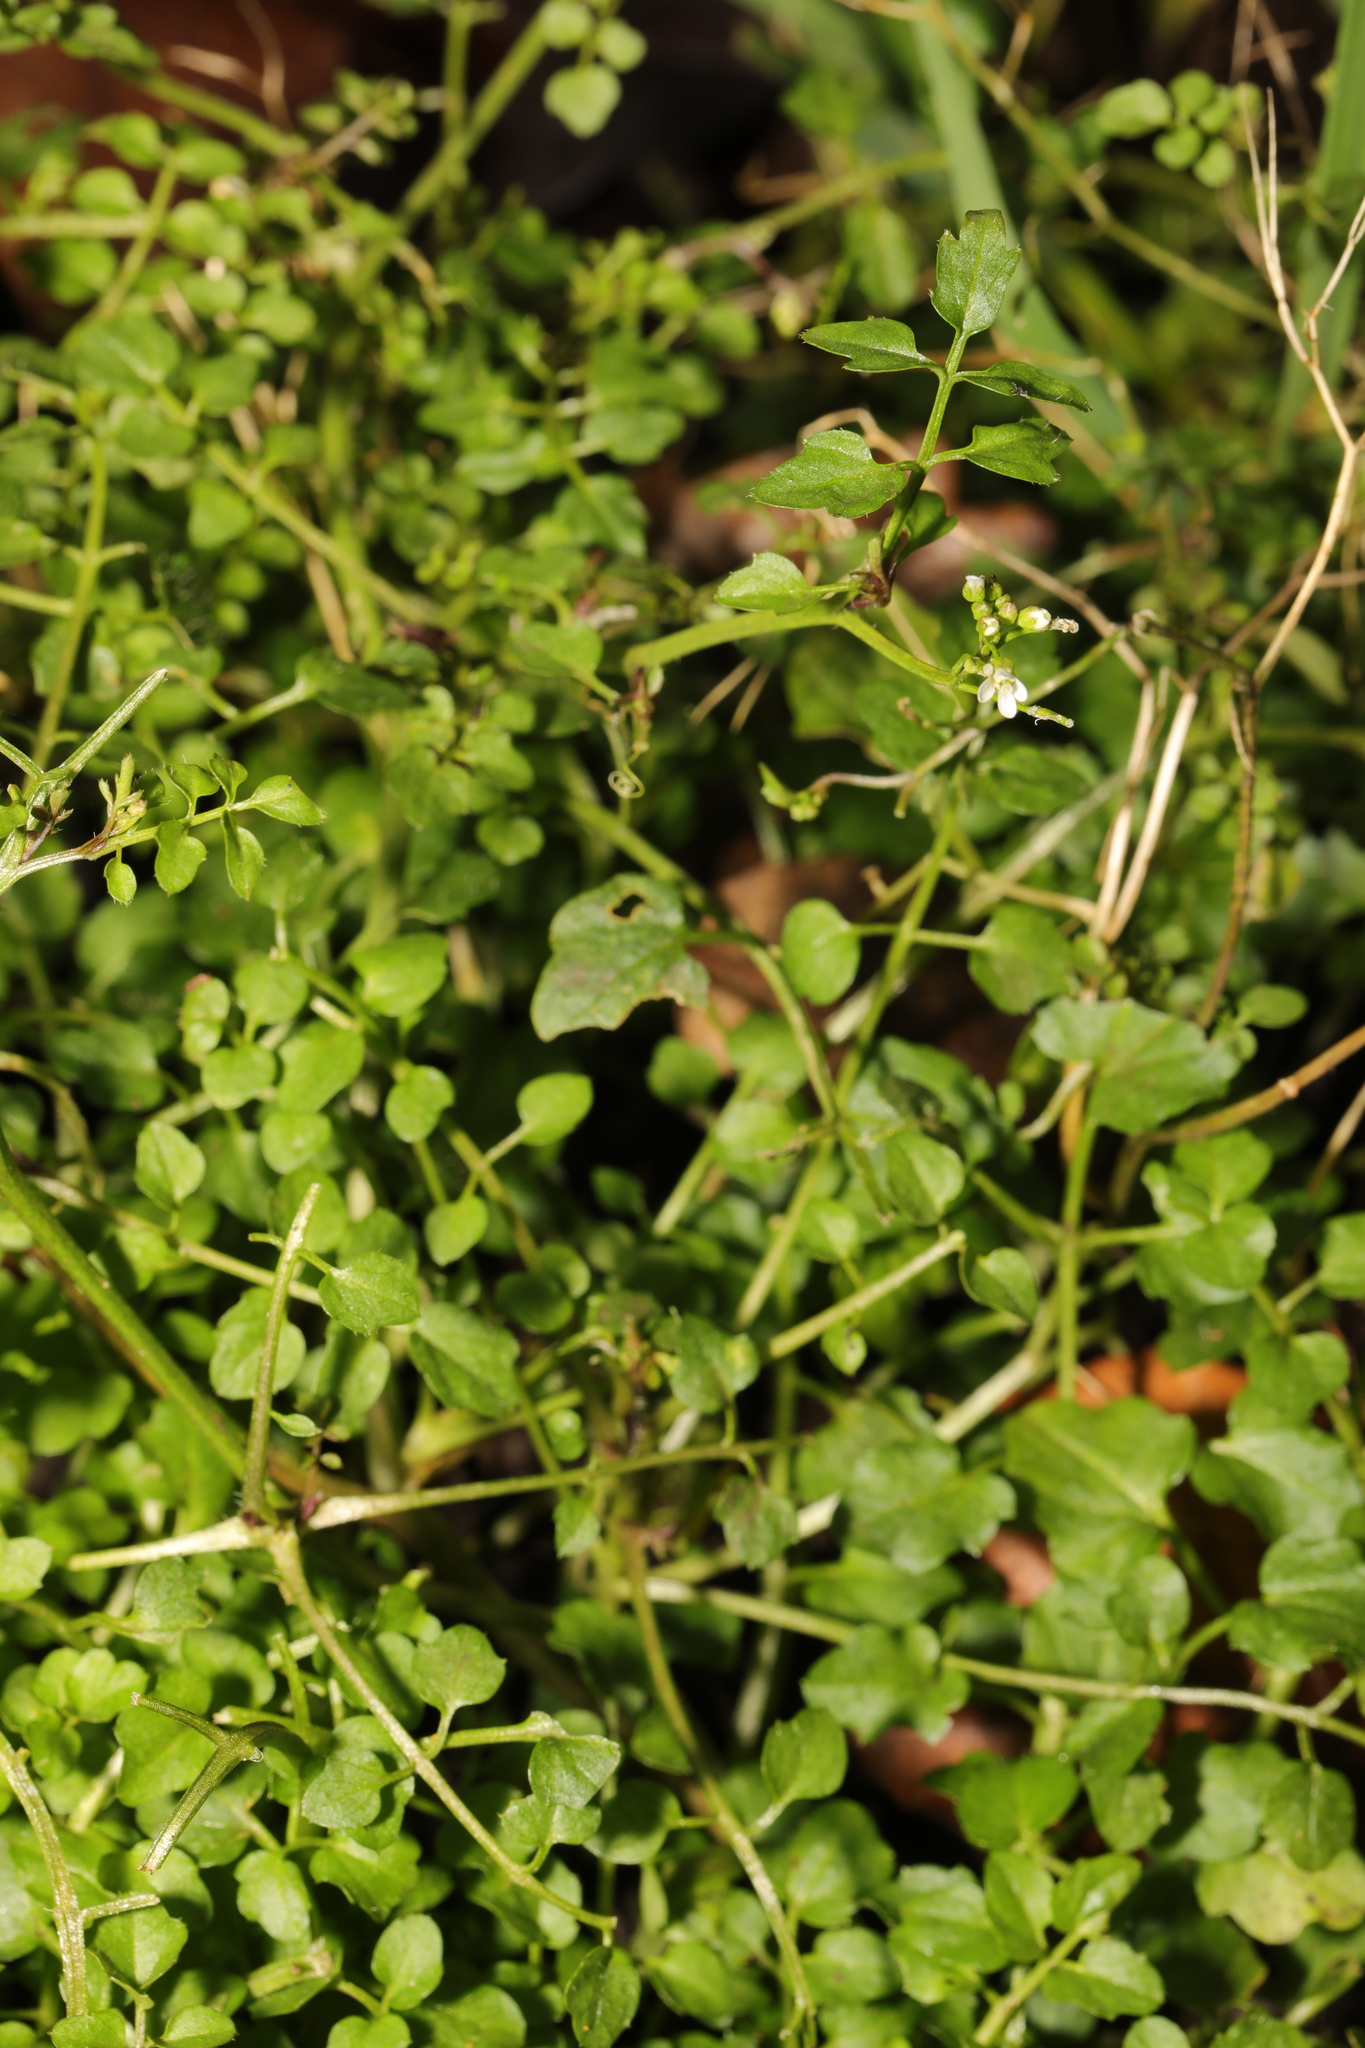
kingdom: Plantae
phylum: Tracheophyta
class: Magnoliopsida
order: Brassicales
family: Brassicaceae
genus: Cardamine
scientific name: Cardamine hirsuta
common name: Hairy bittercress
